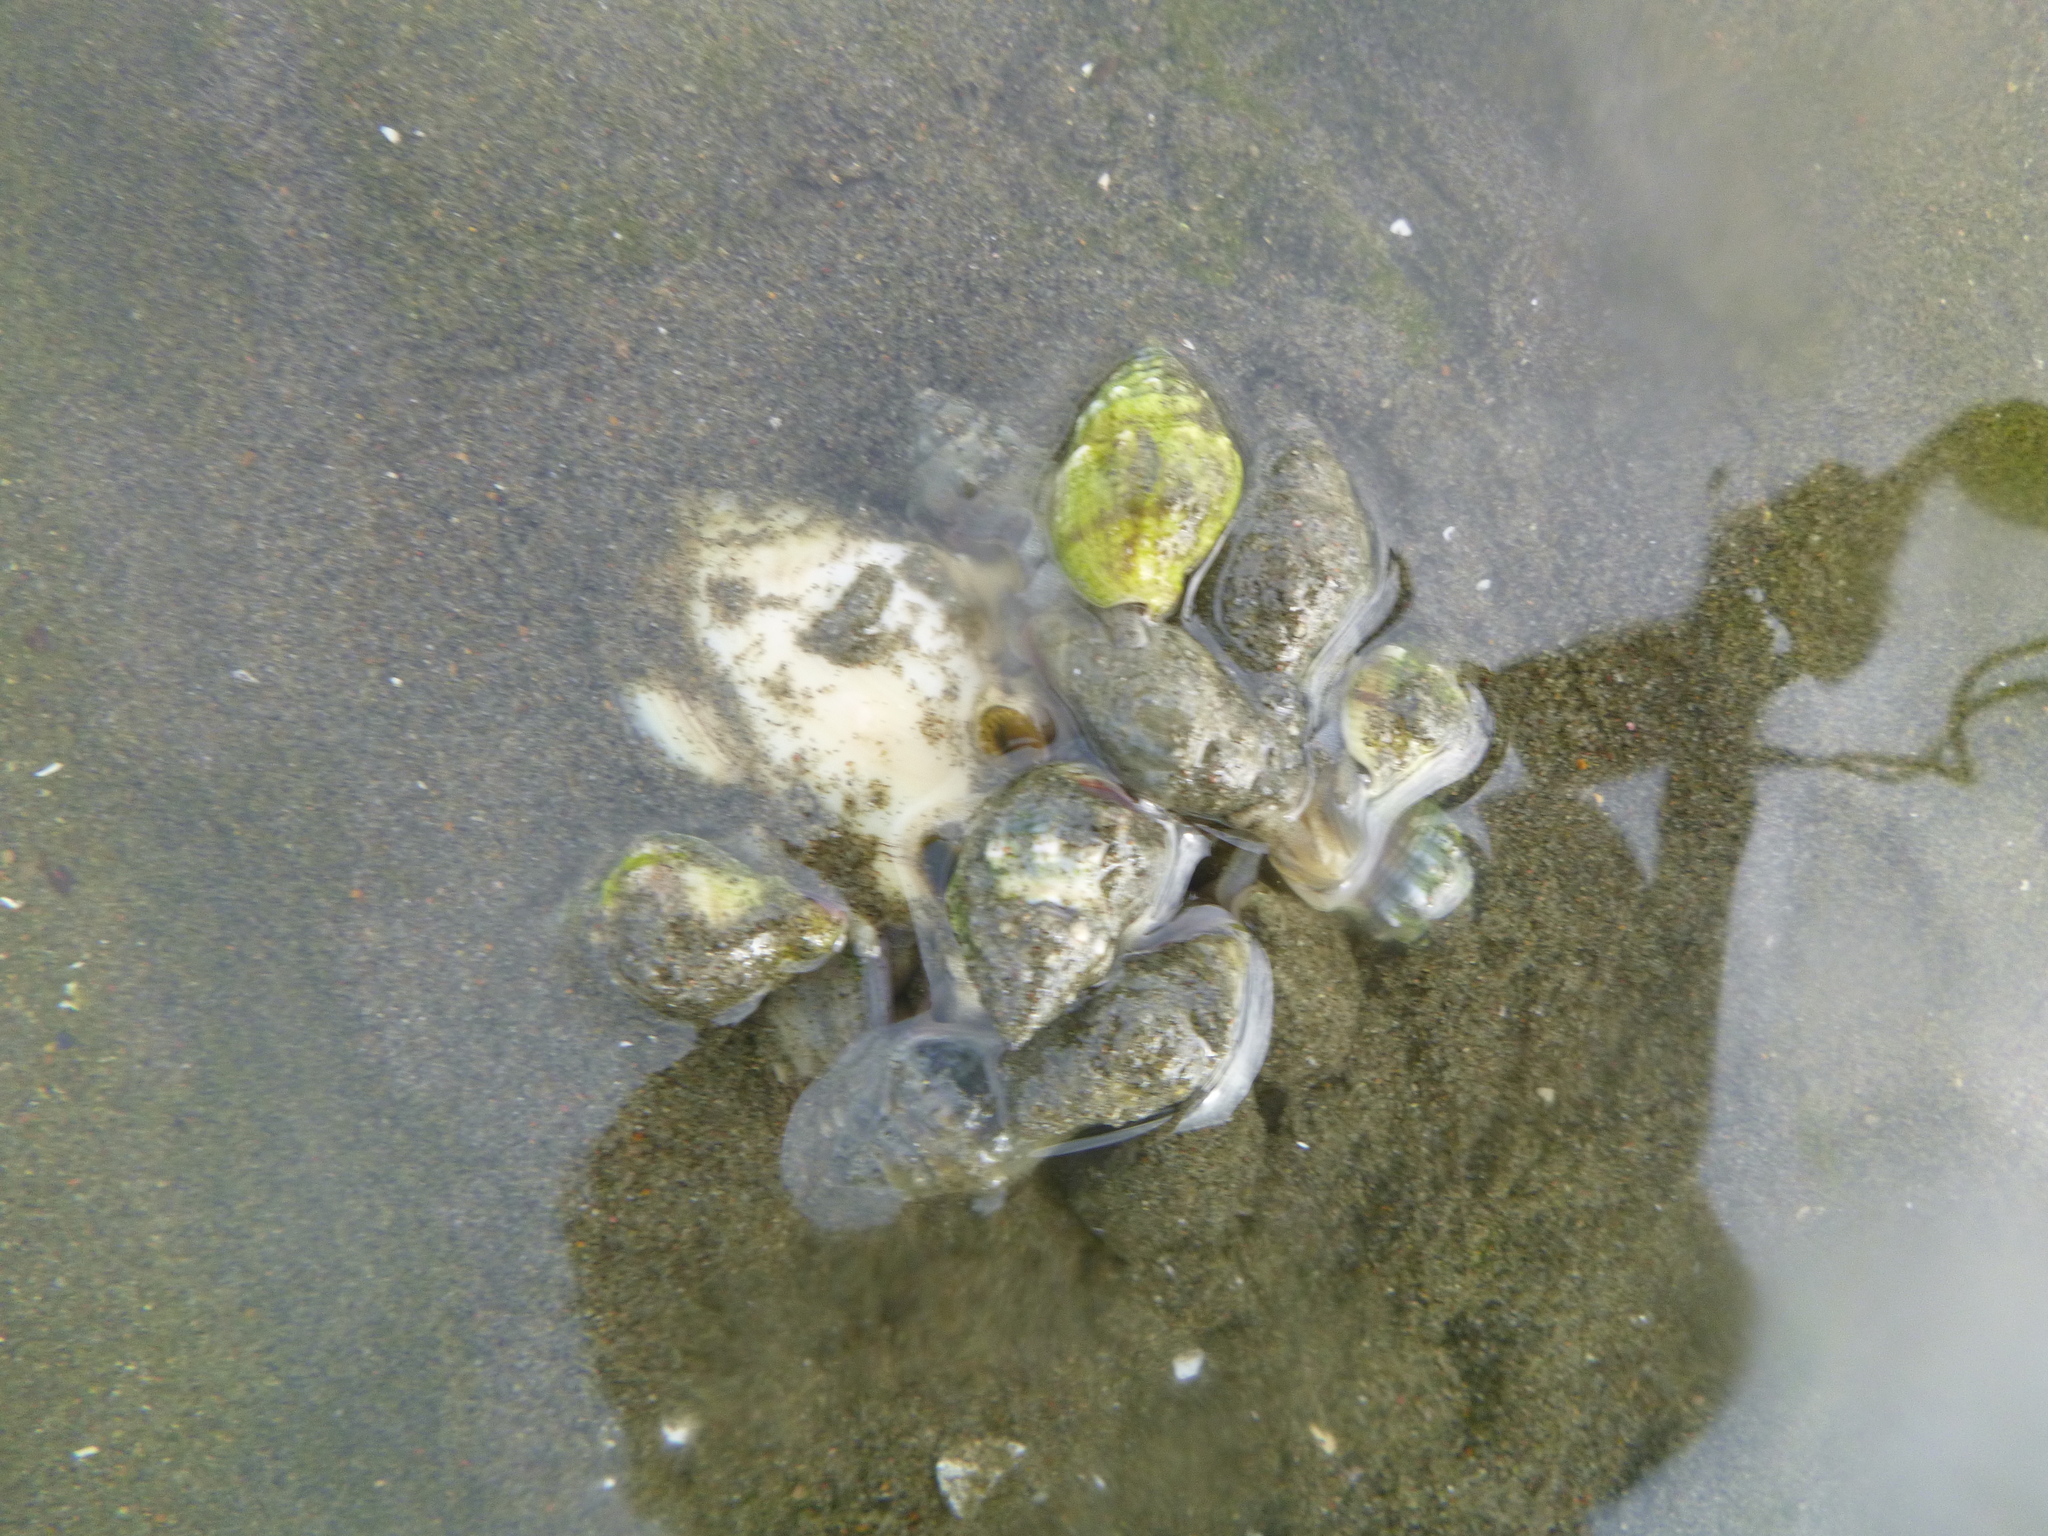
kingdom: Animalia
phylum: Mollusca
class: Gastropoda
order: Neogastropoda
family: Cominellidae
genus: Cominella
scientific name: Cominella glandiformis
